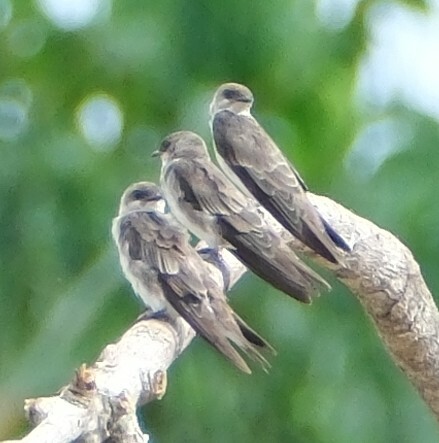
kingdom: Animalia
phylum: Chordata
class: Aves
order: Passeriformes
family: Hirundinidae
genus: Progne
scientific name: Progne tapera
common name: Brown-chested martin
